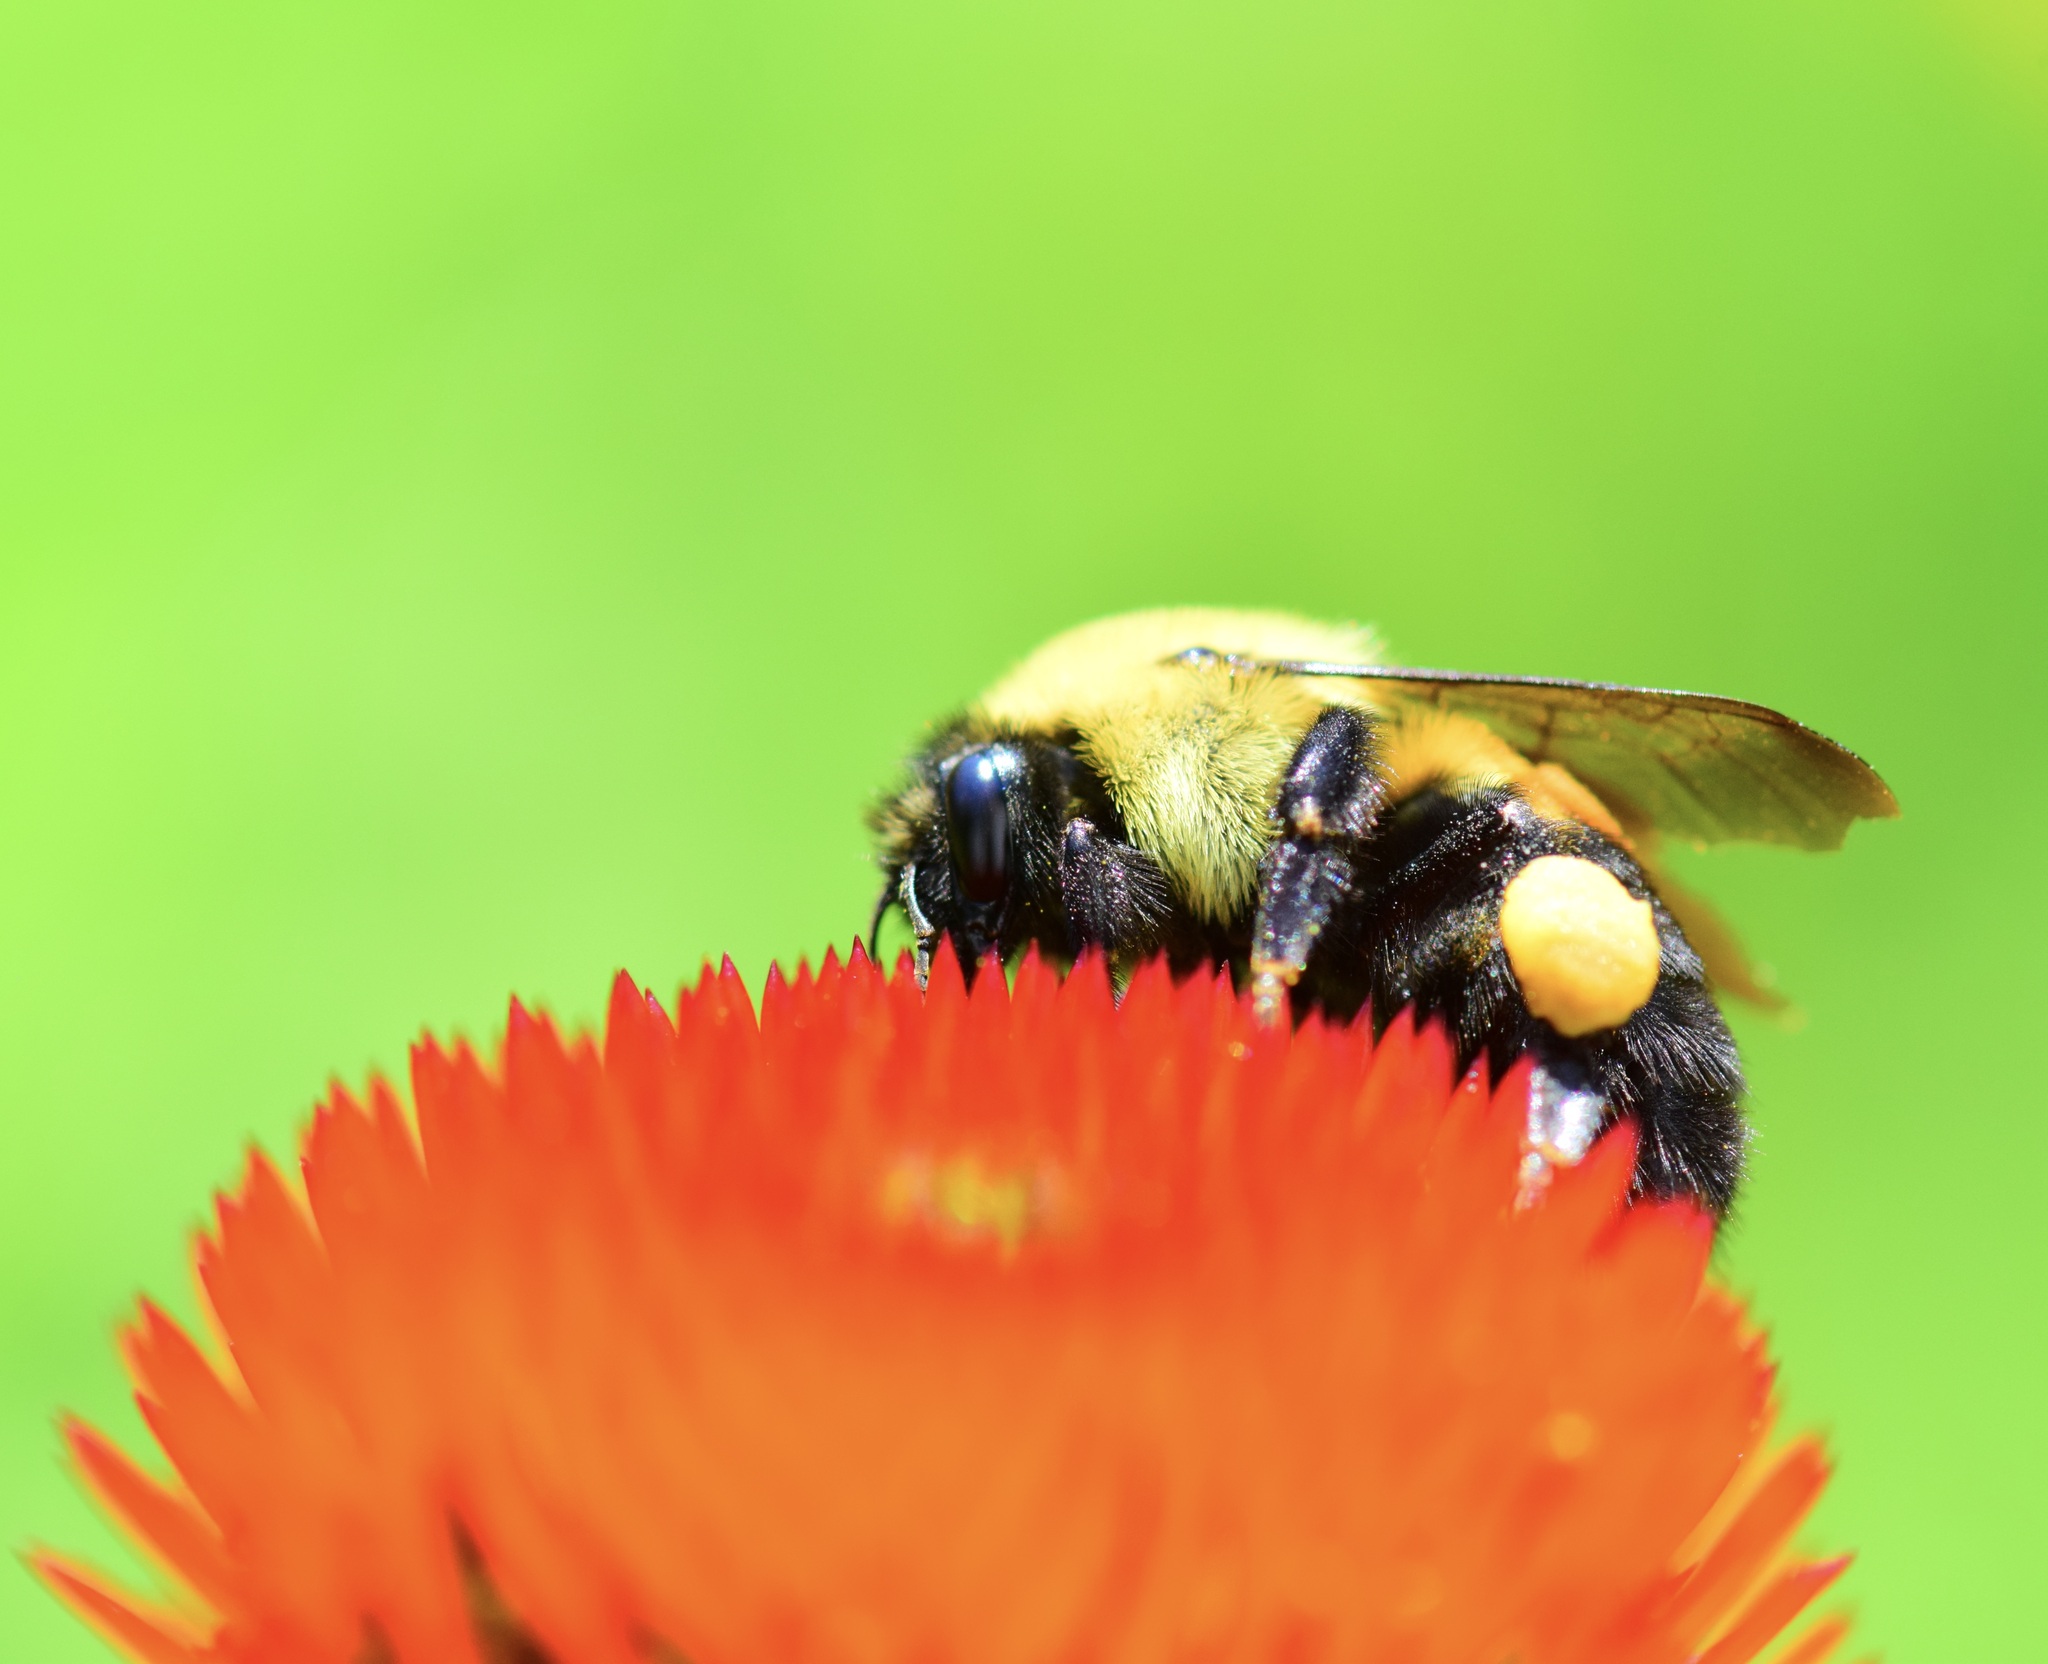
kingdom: Animalia
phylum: Arthropoda
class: Insecta
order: Hymenoptera
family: Apidae
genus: Bombus
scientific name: Bombus griseocollis
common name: Brown-belted bumble bee
